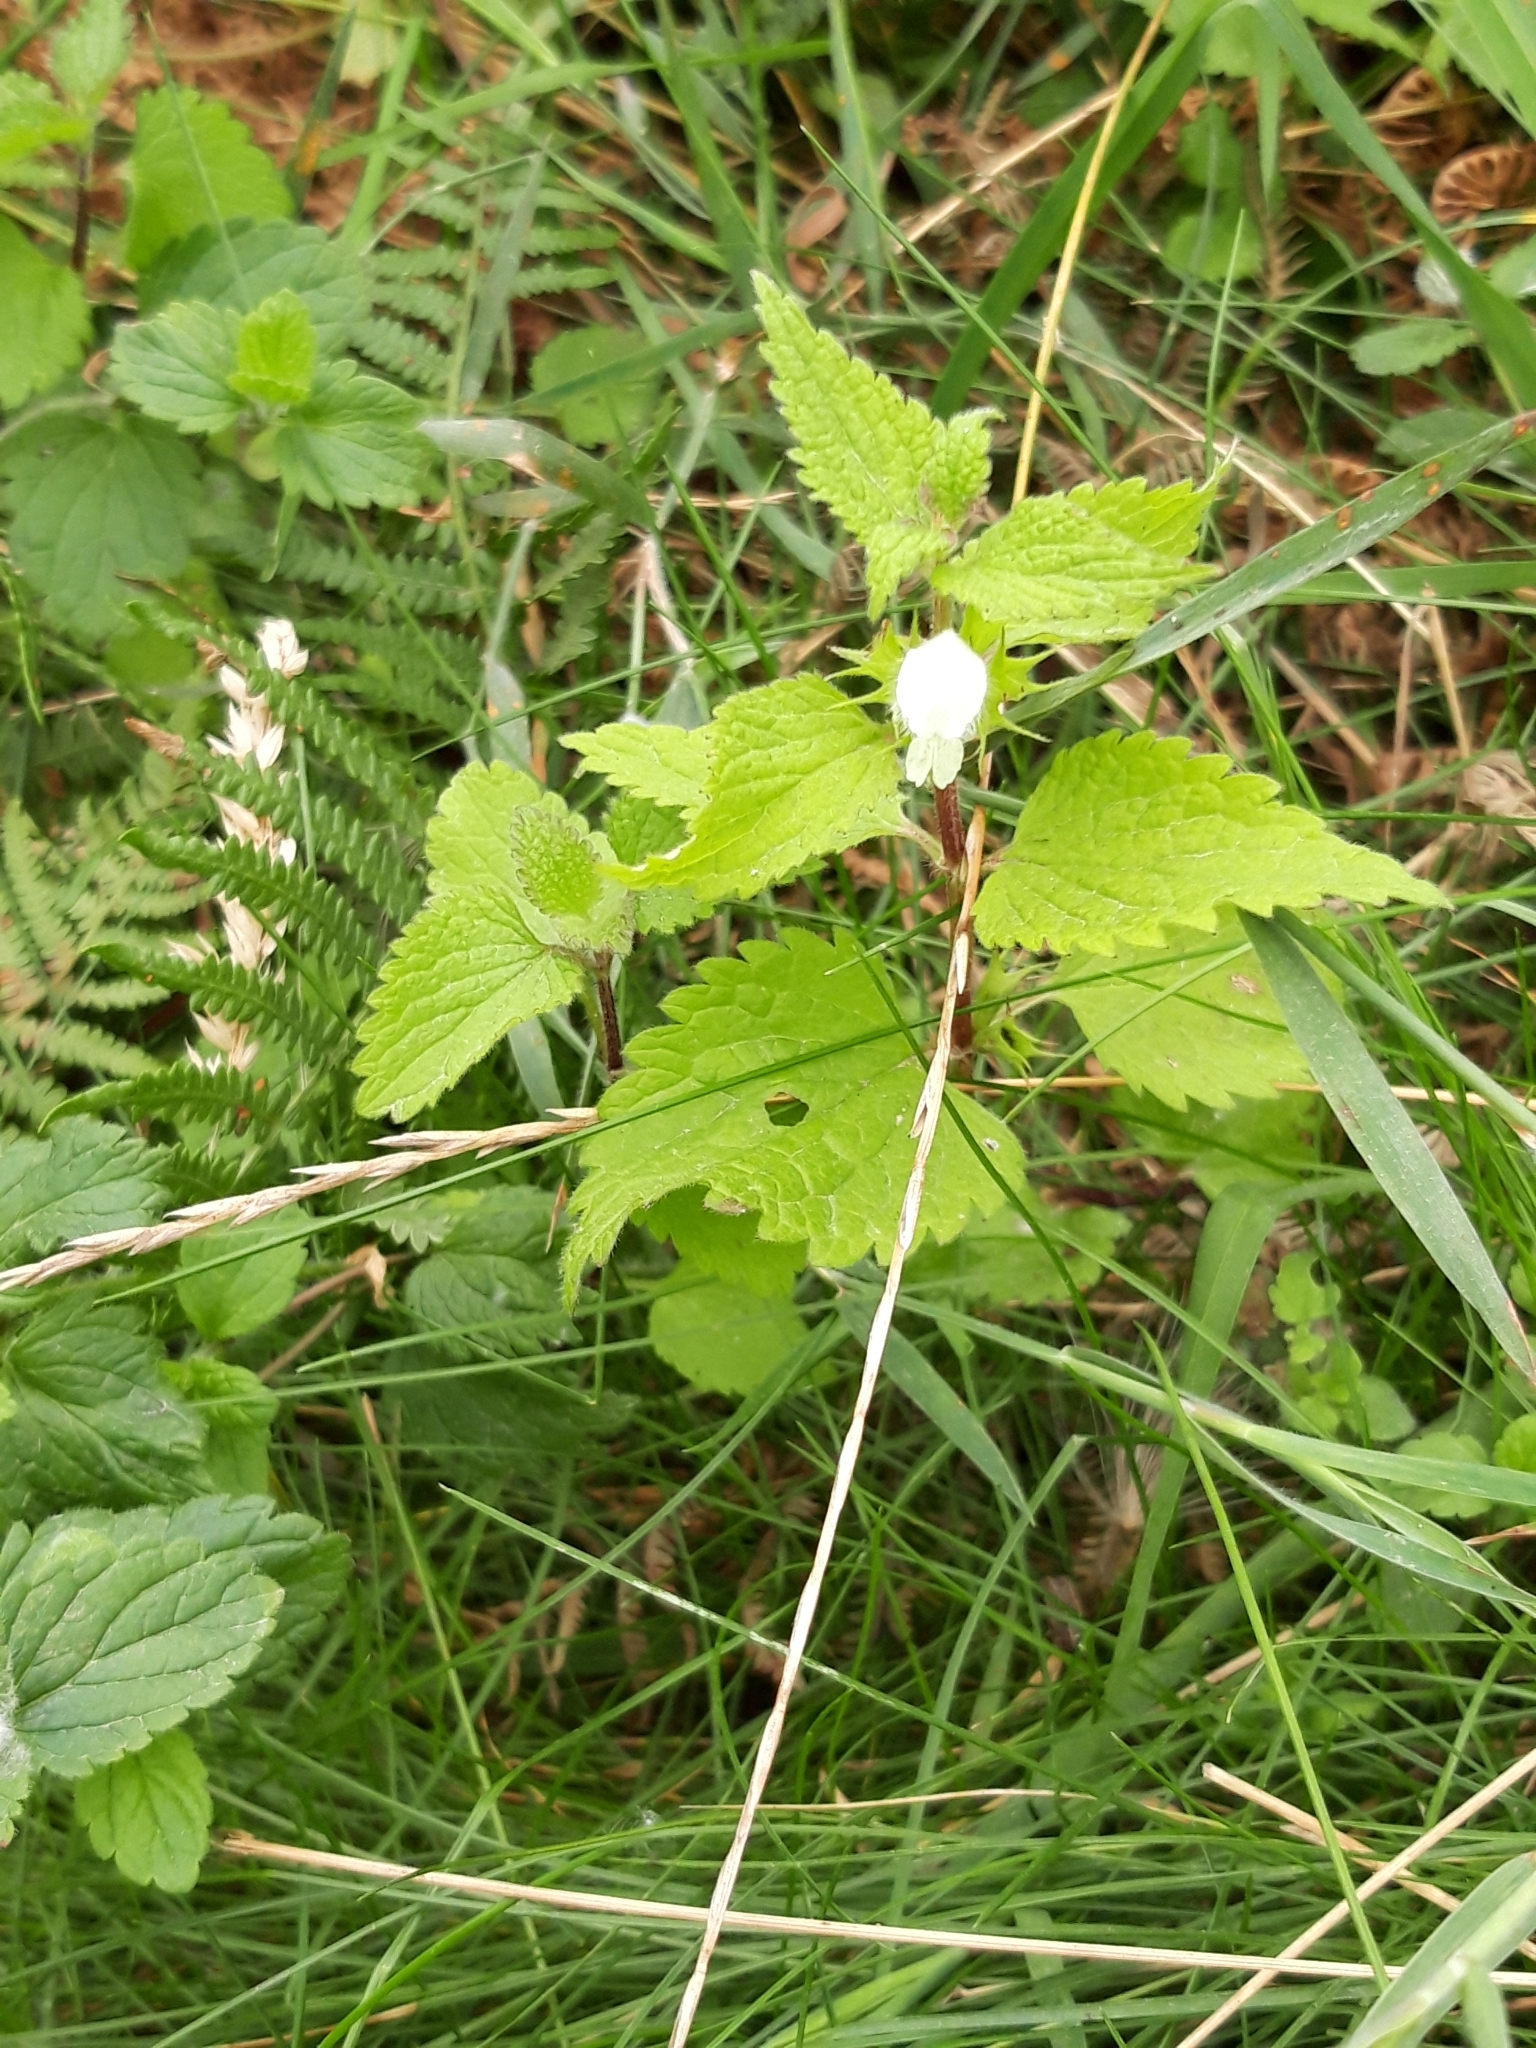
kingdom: Plantae
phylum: Tracheophyta
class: Magnoliopsida
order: Lamiales
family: Lamiaceae
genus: Lamium
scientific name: Lamium album
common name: White dead-nettle
